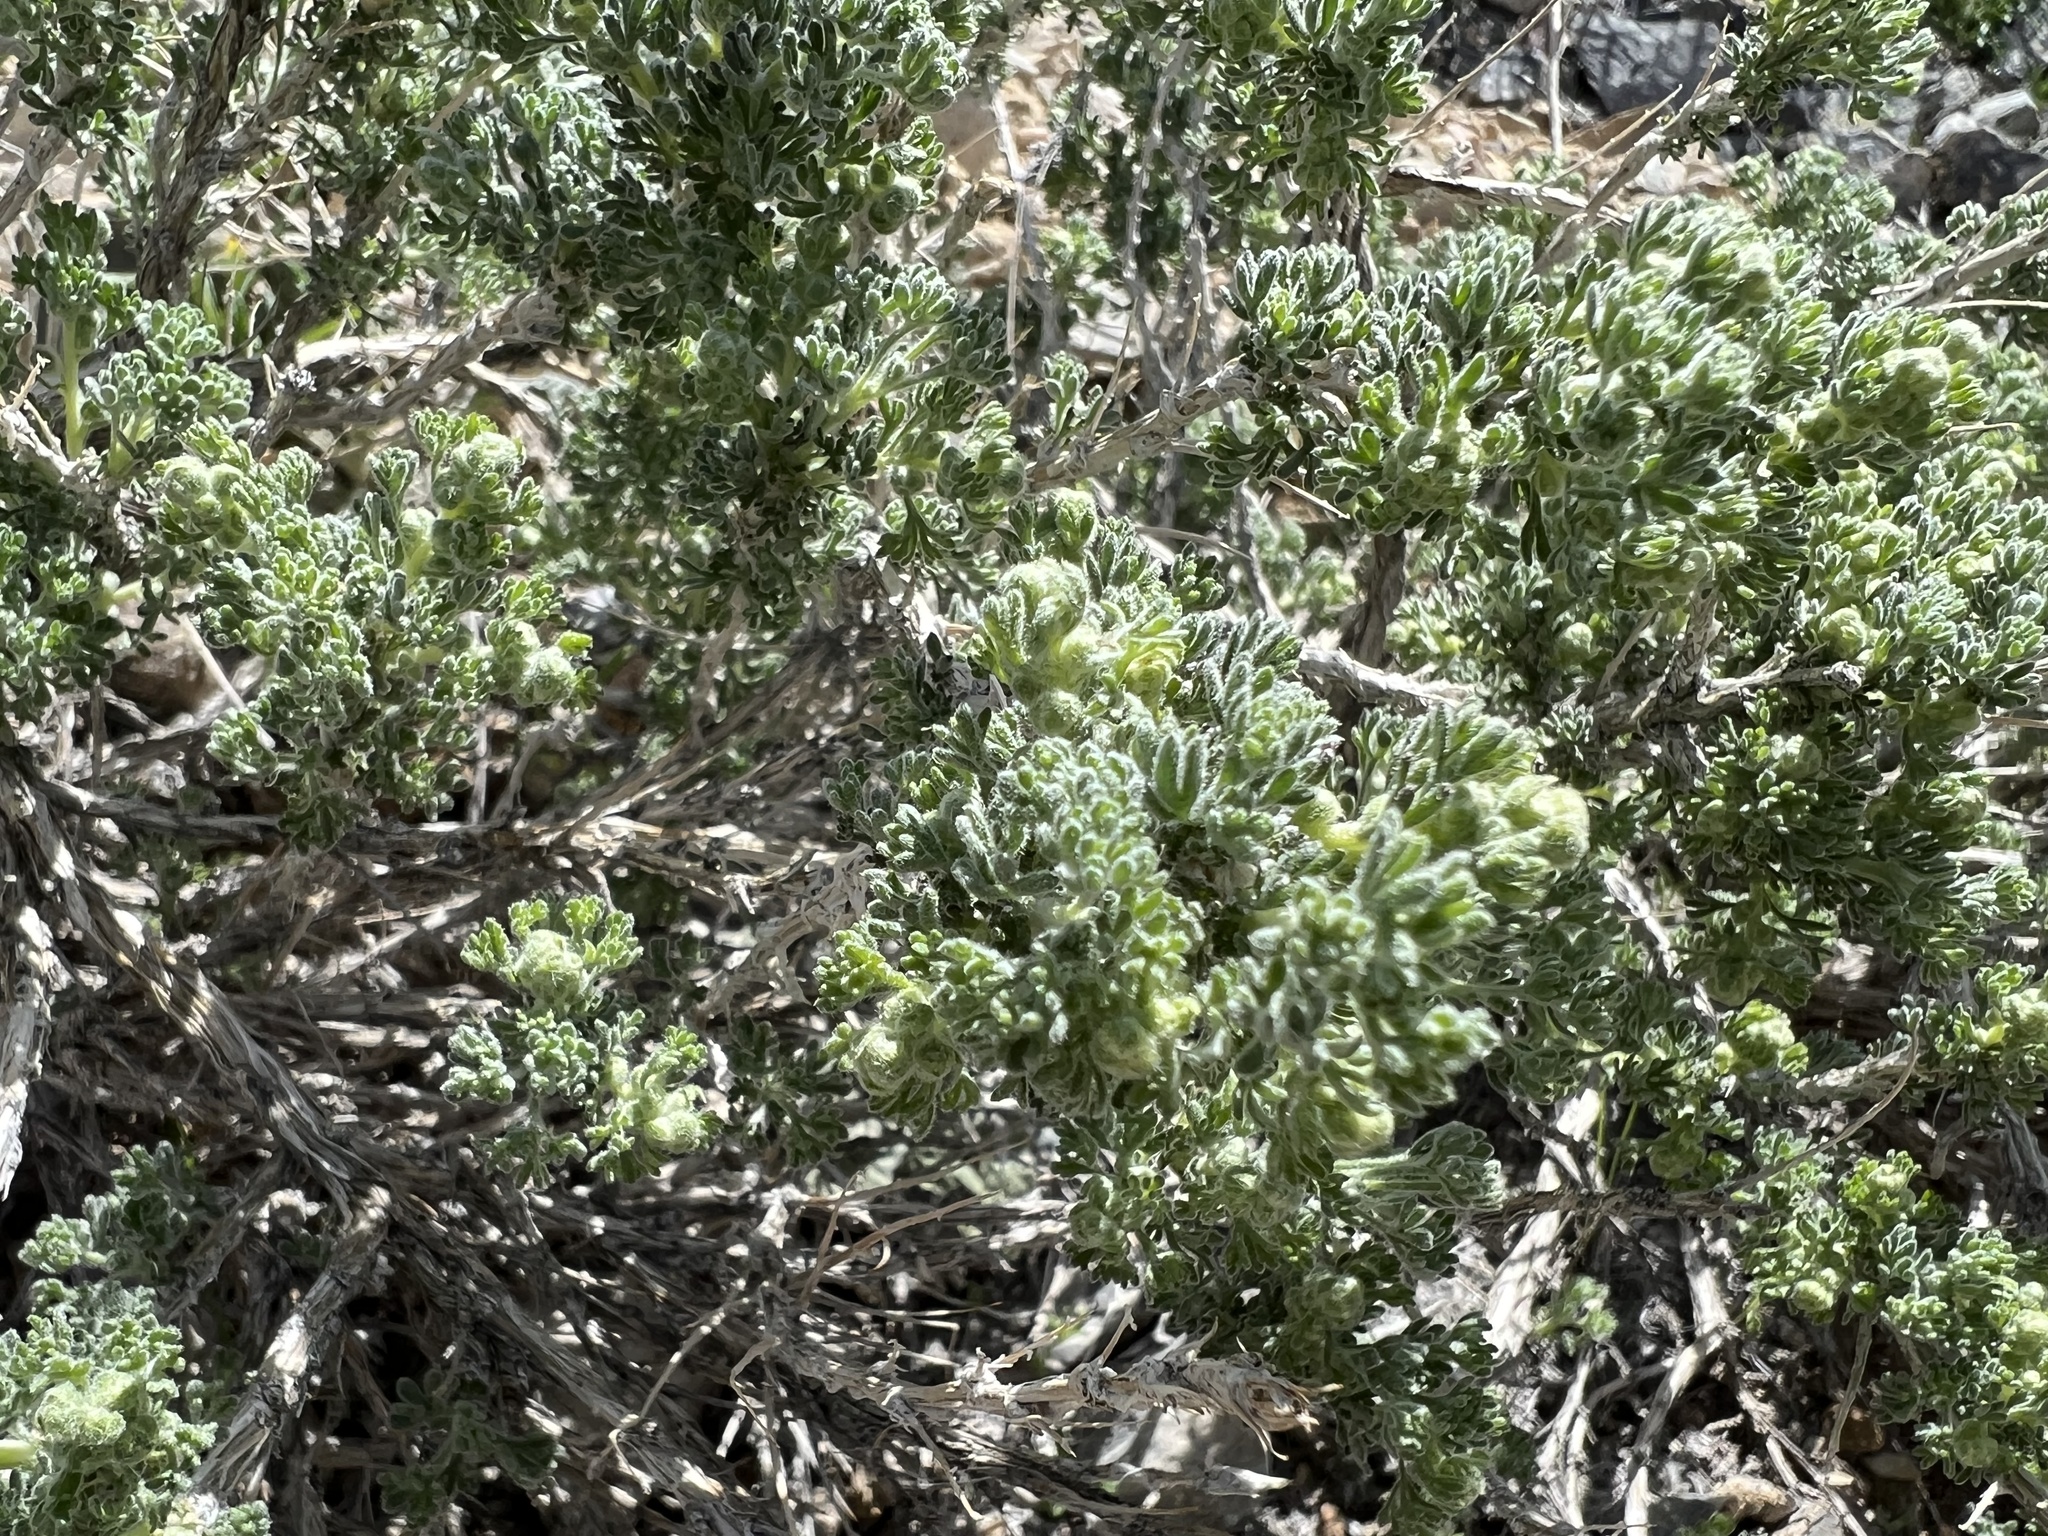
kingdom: Plantae
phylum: Tracheophyta
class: Magnoliopsida
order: Asterales
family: Asteraceae
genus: Artemisia
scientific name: Artemisia spinescens
